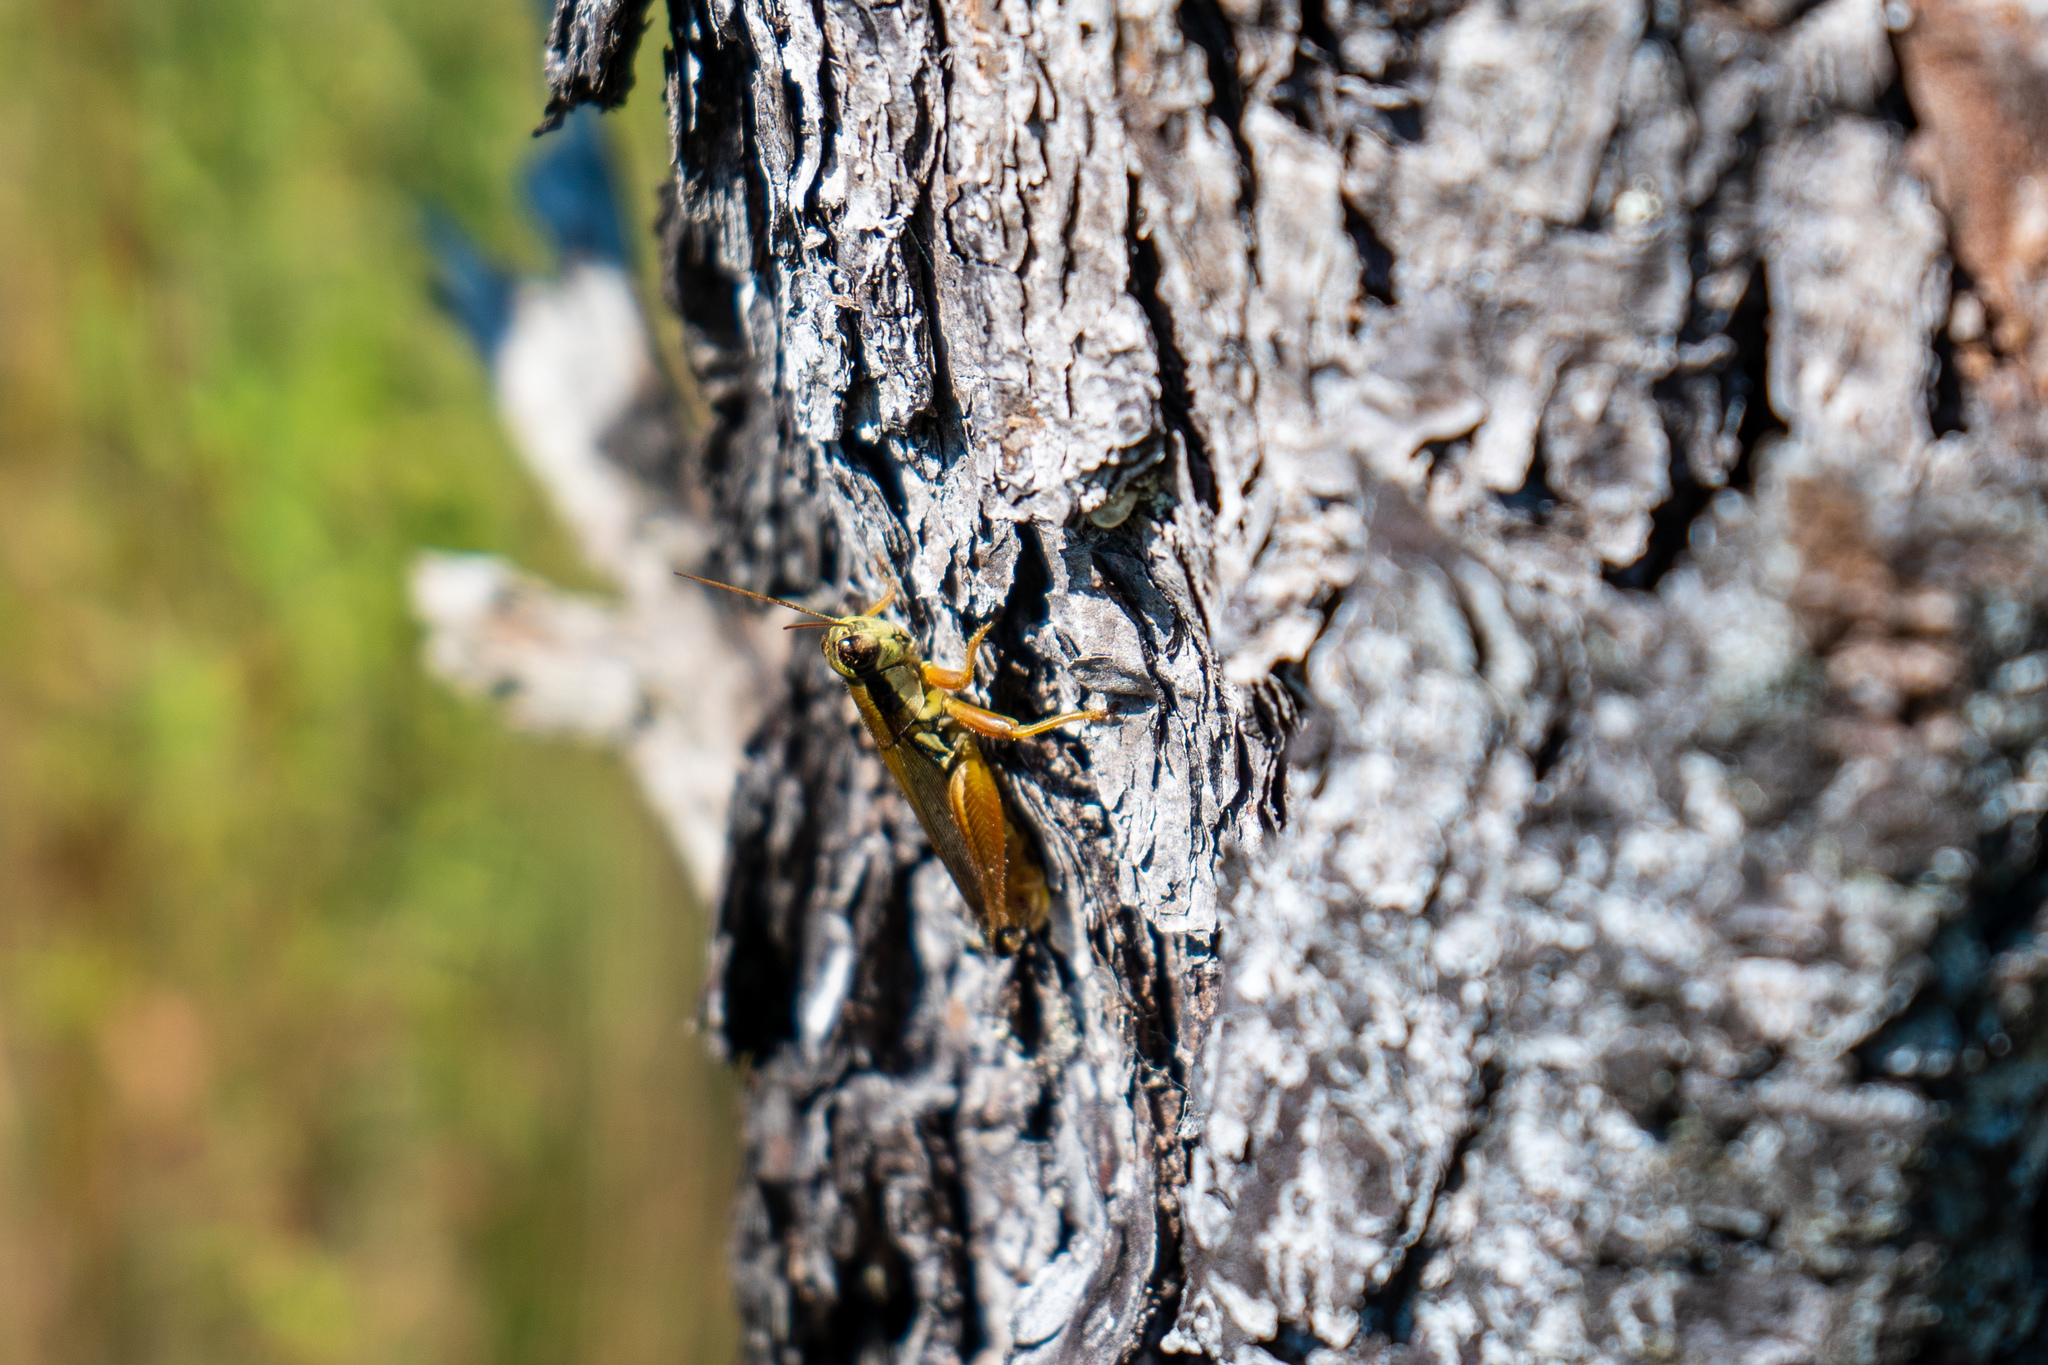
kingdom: Animalia
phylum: Arthropoda
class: Insecta
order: Orthoptera
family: Acrididae
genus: Paroxya
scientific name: Paroxya atlantica
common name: Atlantic grasshopper
